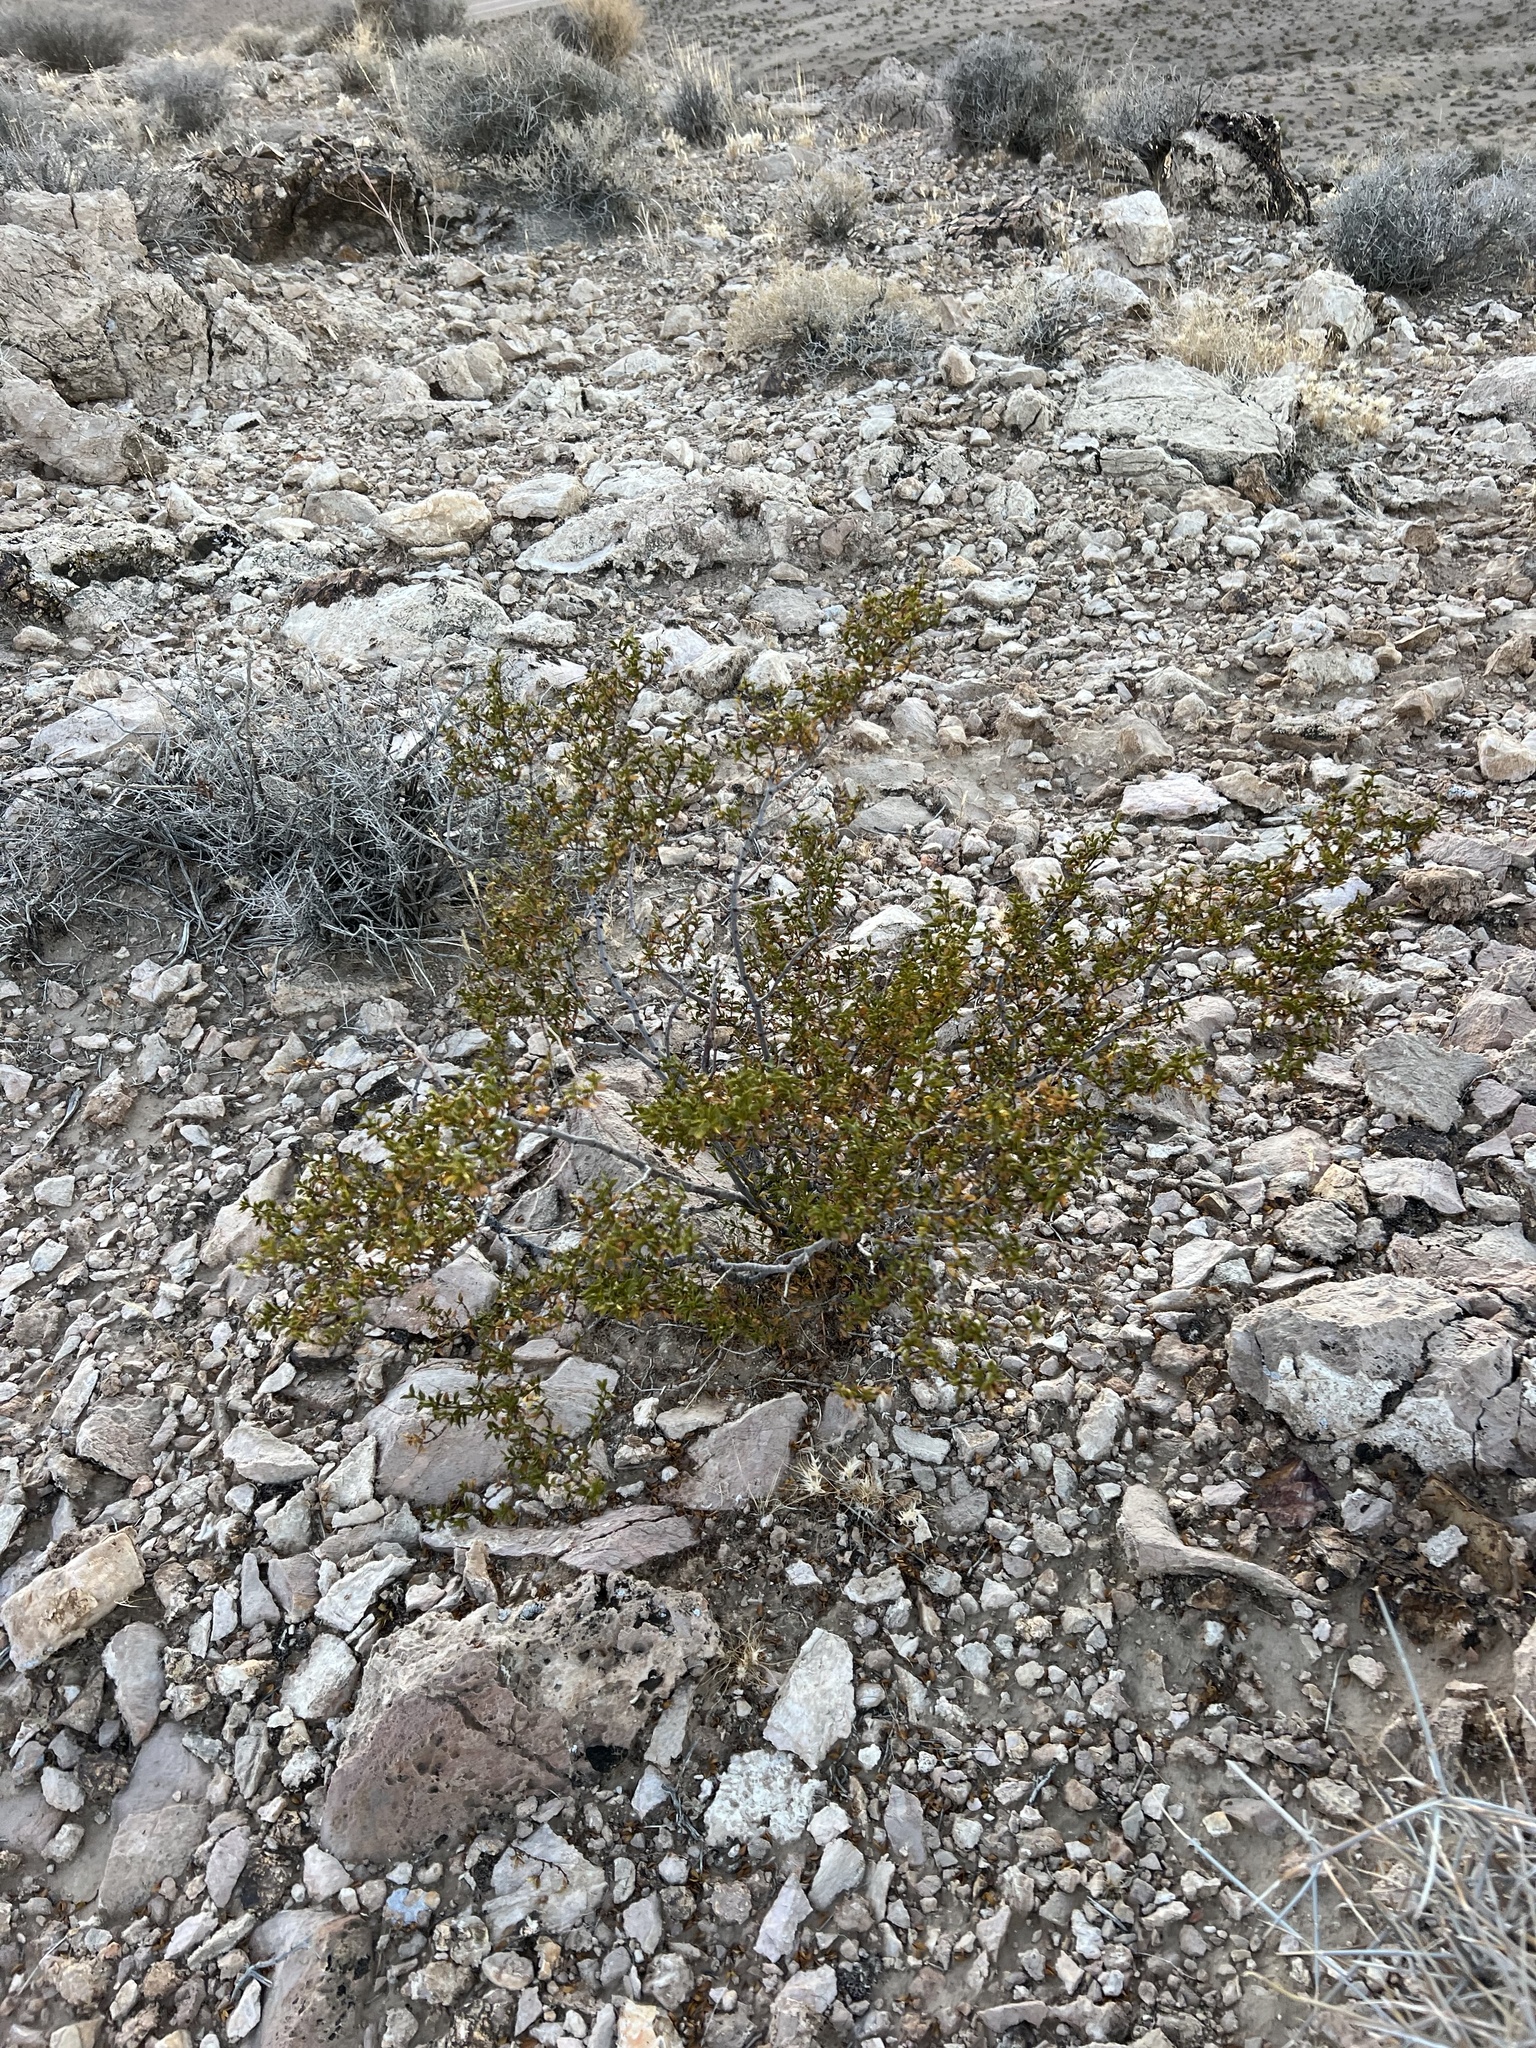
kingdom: Plantae
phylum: Tracheophyta
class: Magnoliopsida
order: Zygophyllales
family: Zygophyllaceae
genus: Larrea
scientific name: Larrea tridentata
